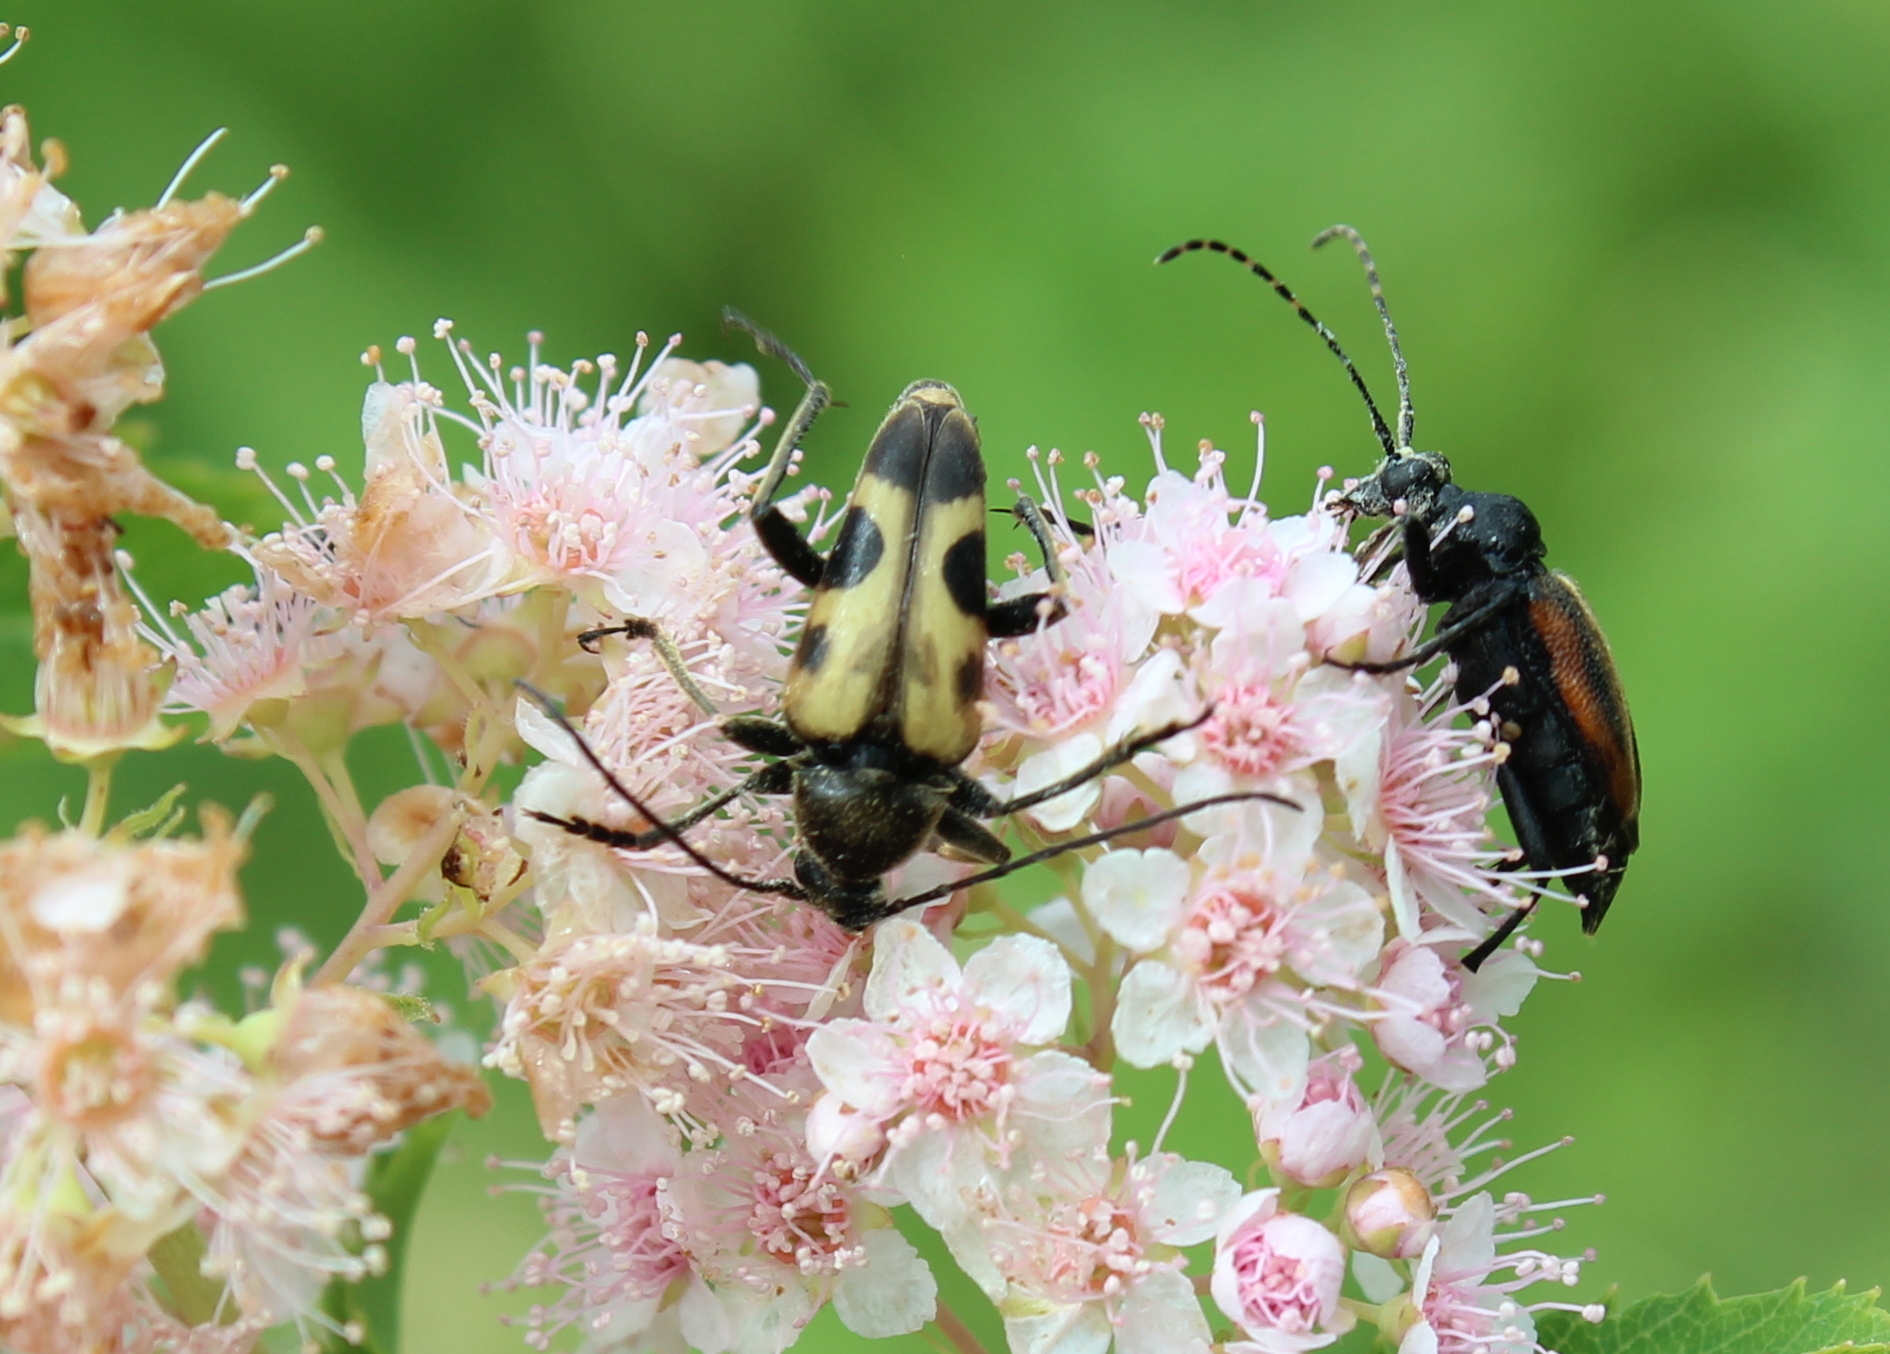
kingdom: Animalia
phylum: Arthropoda
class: Insecta
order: Coleoptera
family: Cerambycidae
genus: Judolia
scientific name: Judolia cordifera
